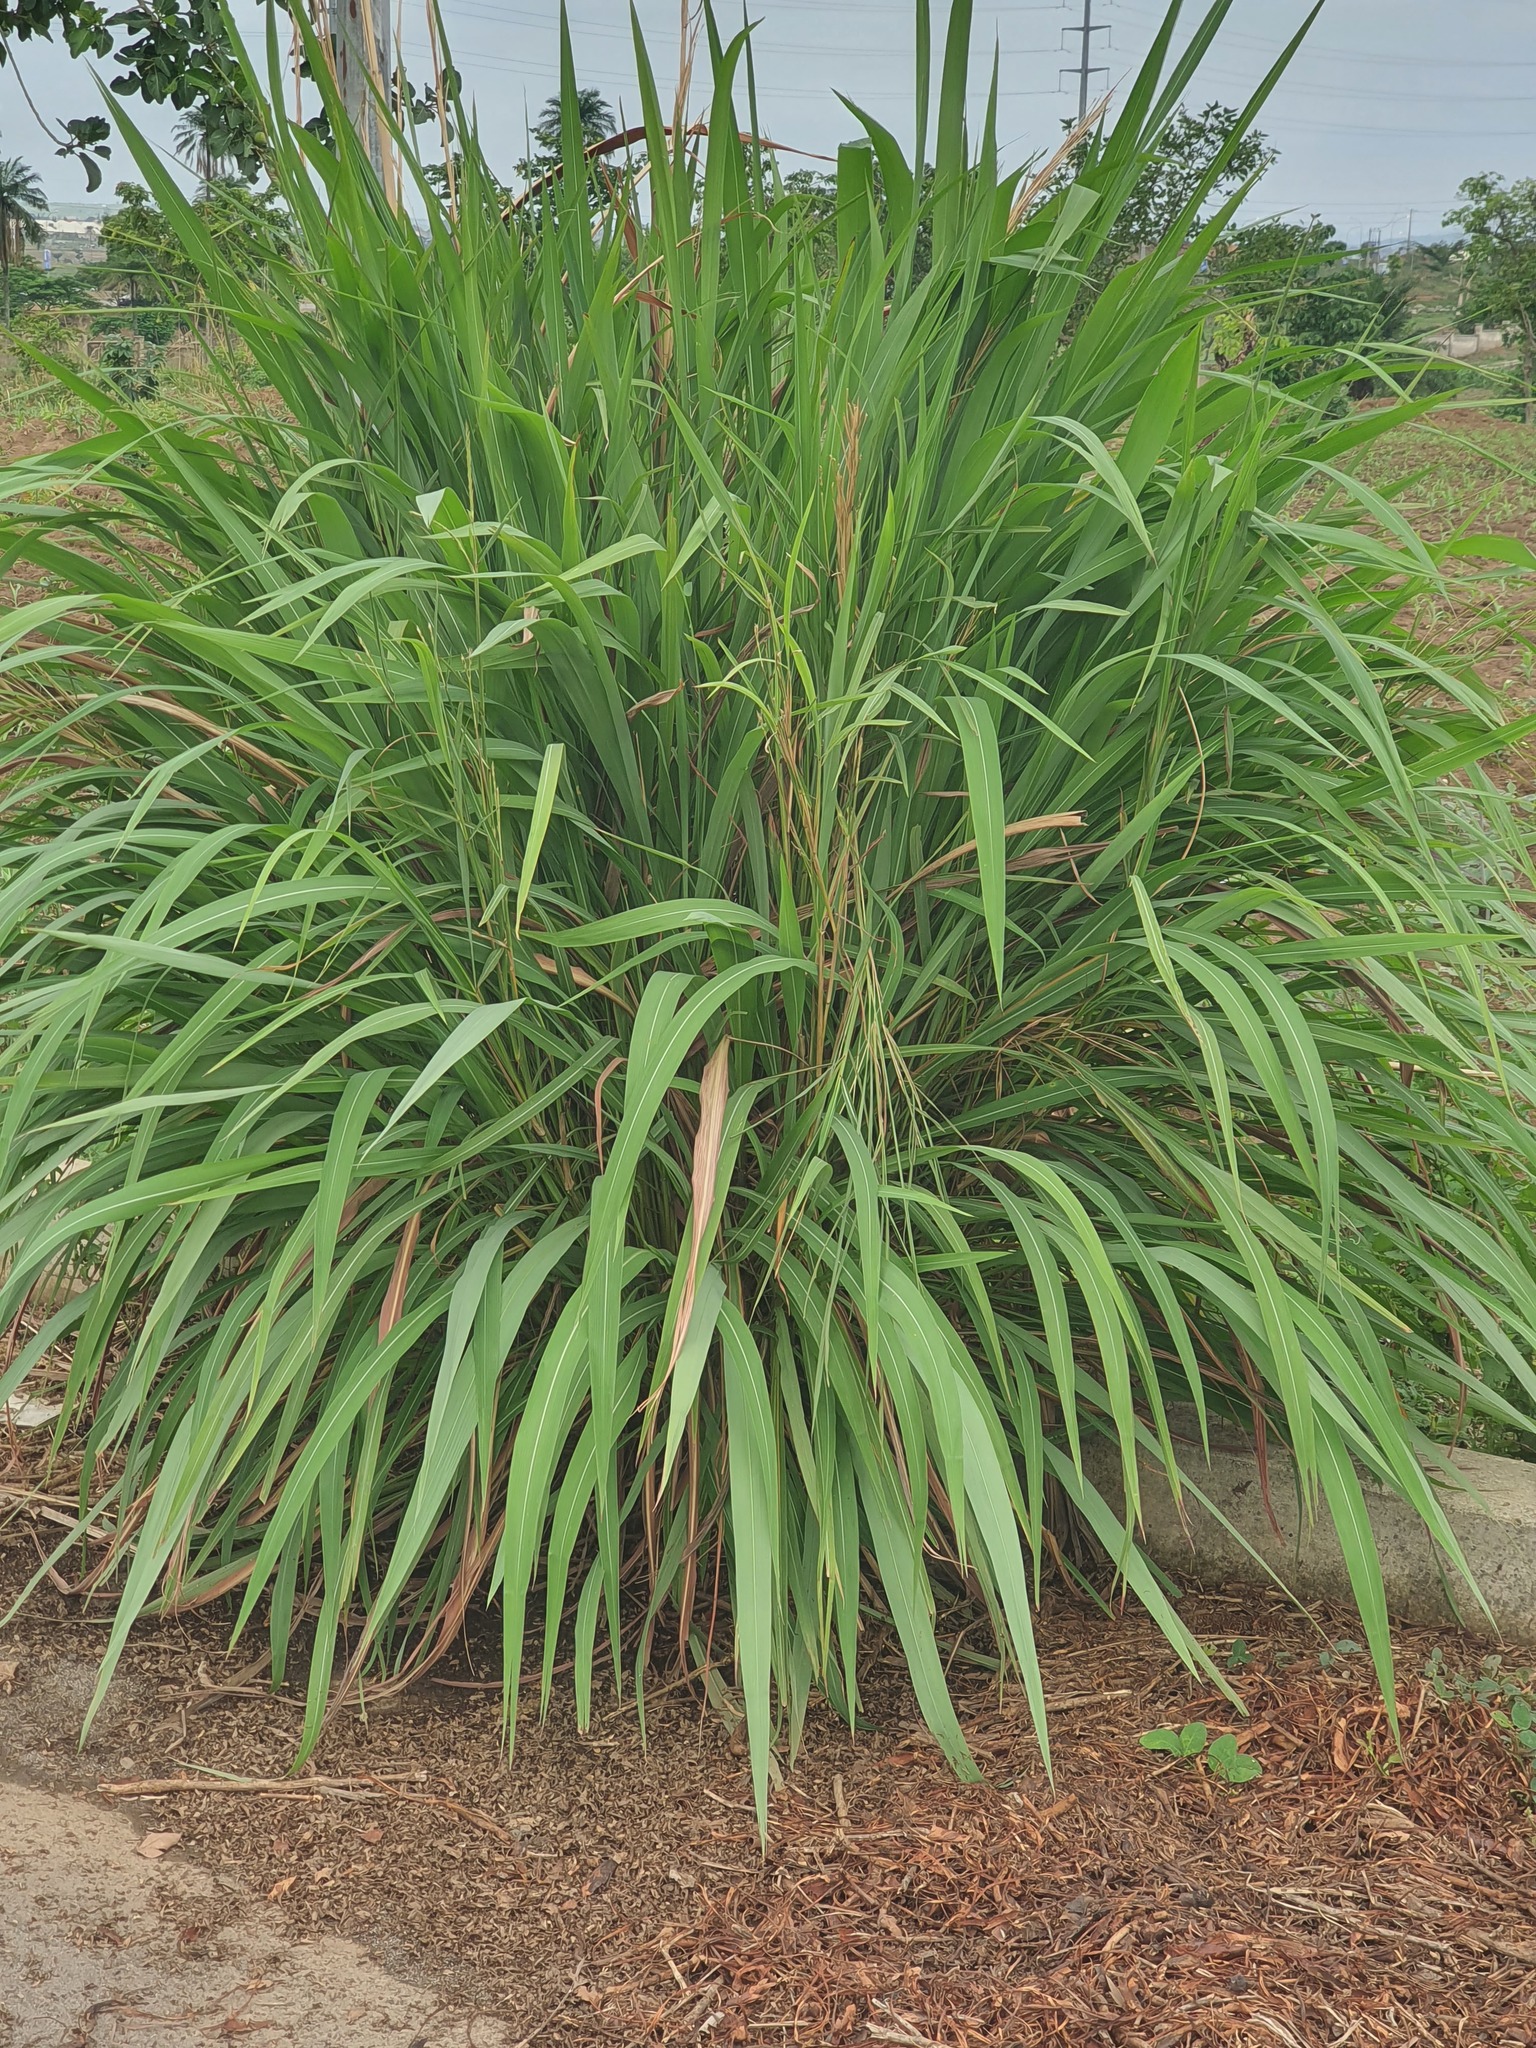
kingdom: Plantae
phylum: Tracheophyta
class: Liliopsida
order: Poales
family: Poaceae
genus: Cymbopogon
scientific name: Cymbopogon citratus
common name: Lemon grass
